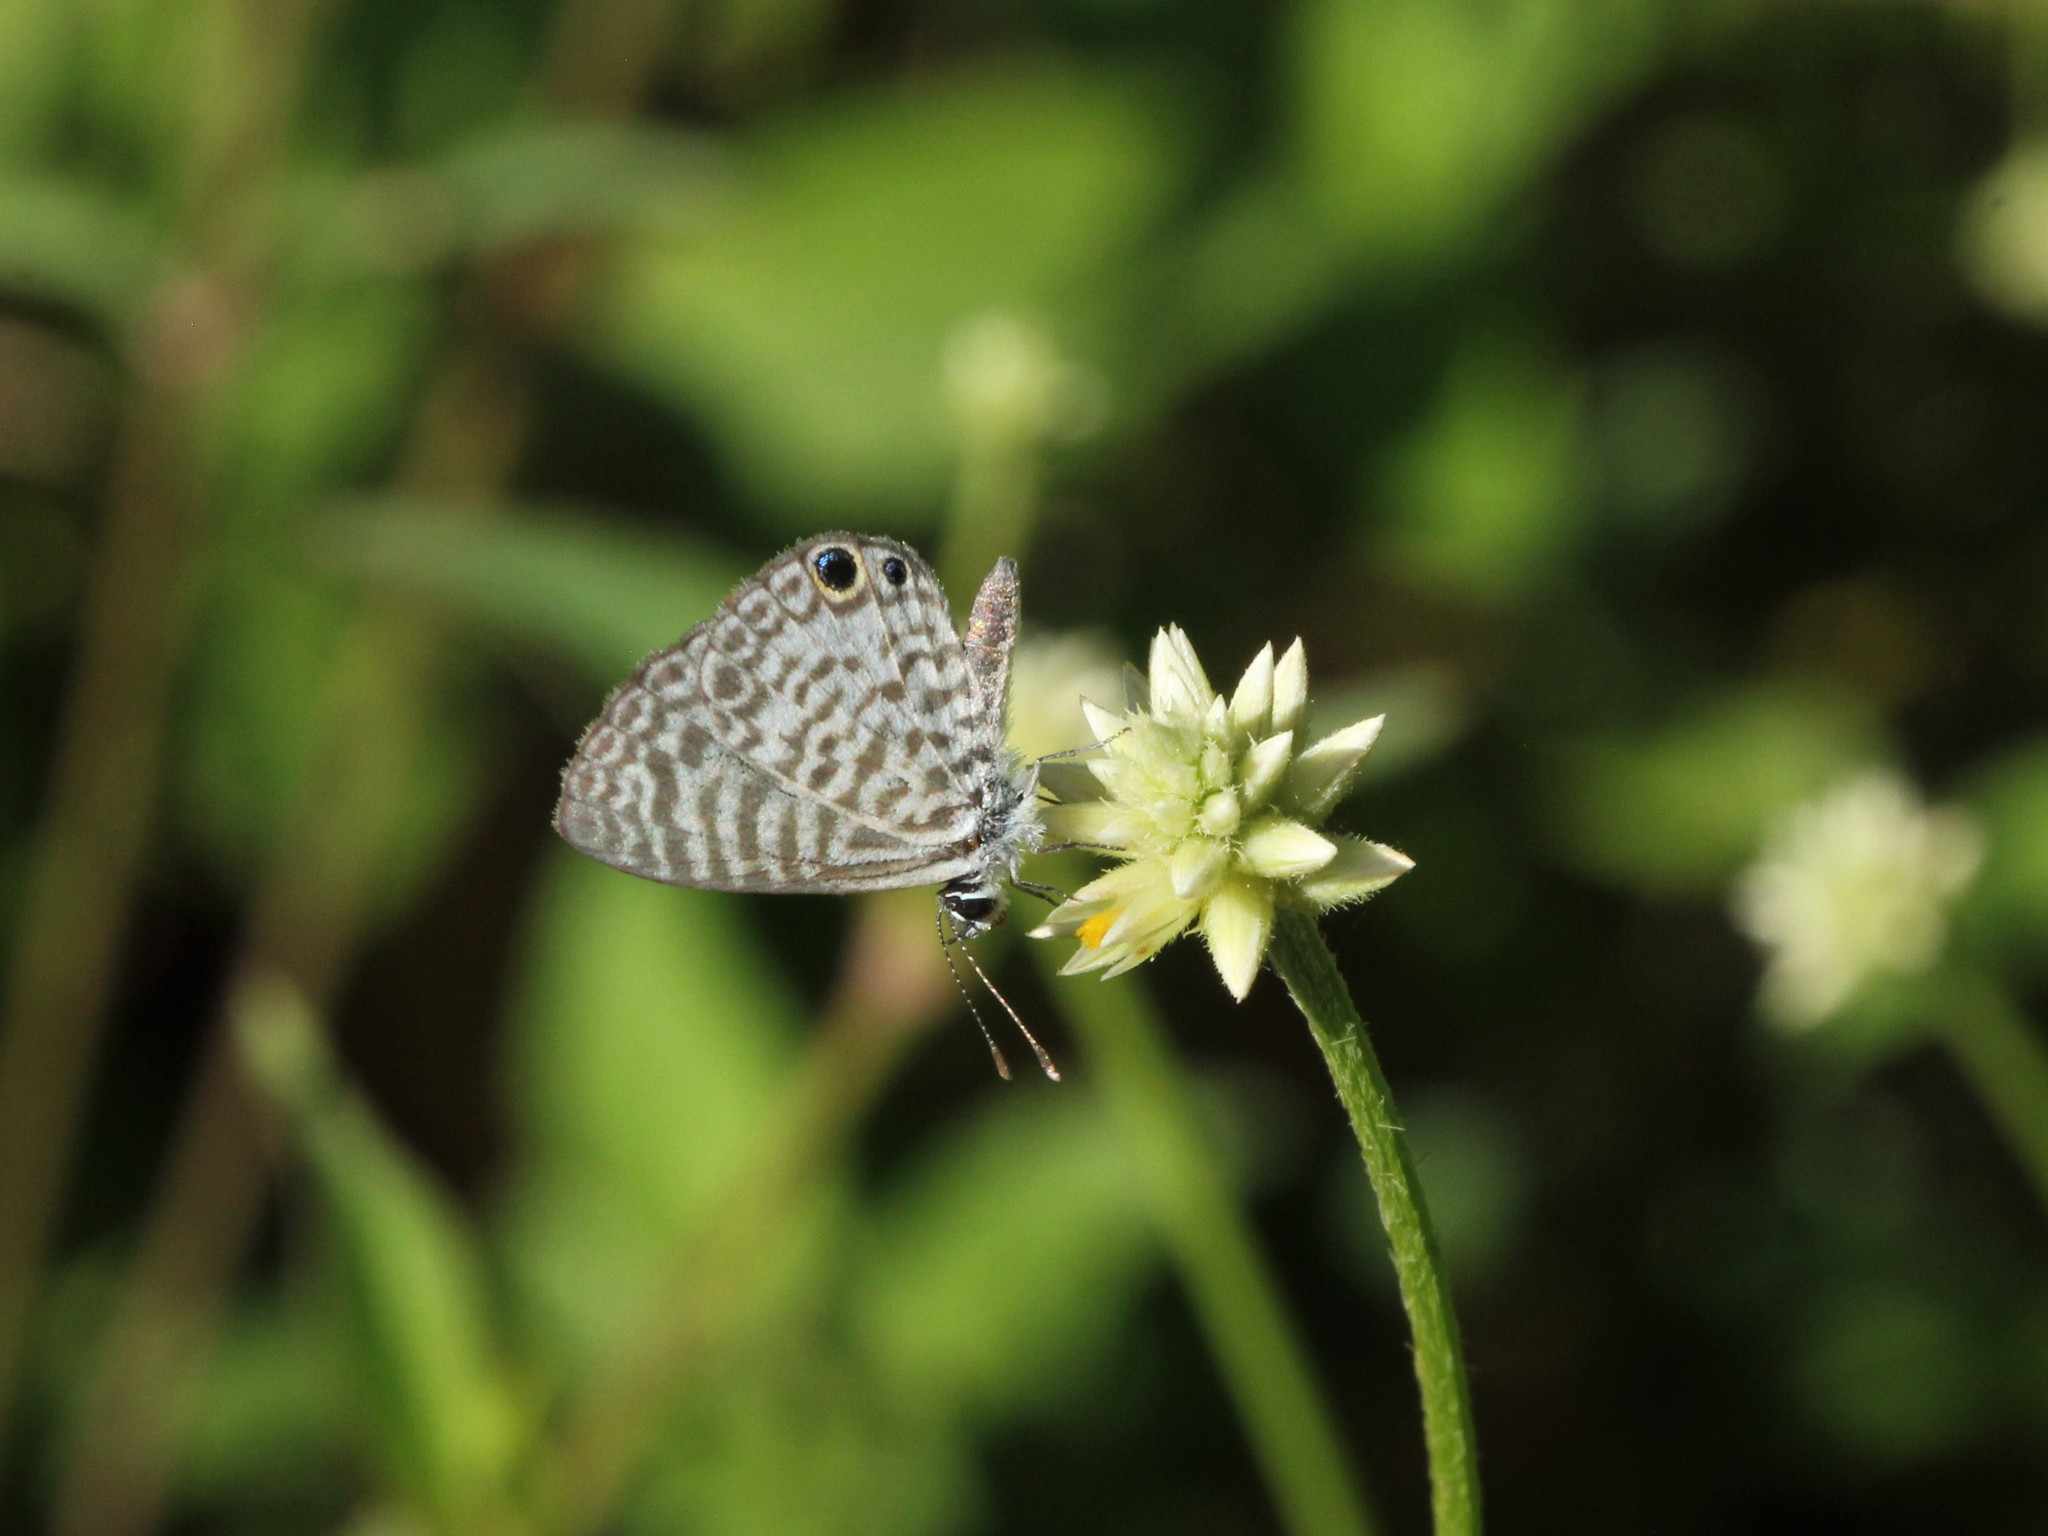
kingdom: Animalia
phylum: Arthropoda
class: Insecta
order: Lepidoptera
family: Lycaenidae
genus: Leptotes
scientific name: Leptotes cassius
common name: Cassius blue
